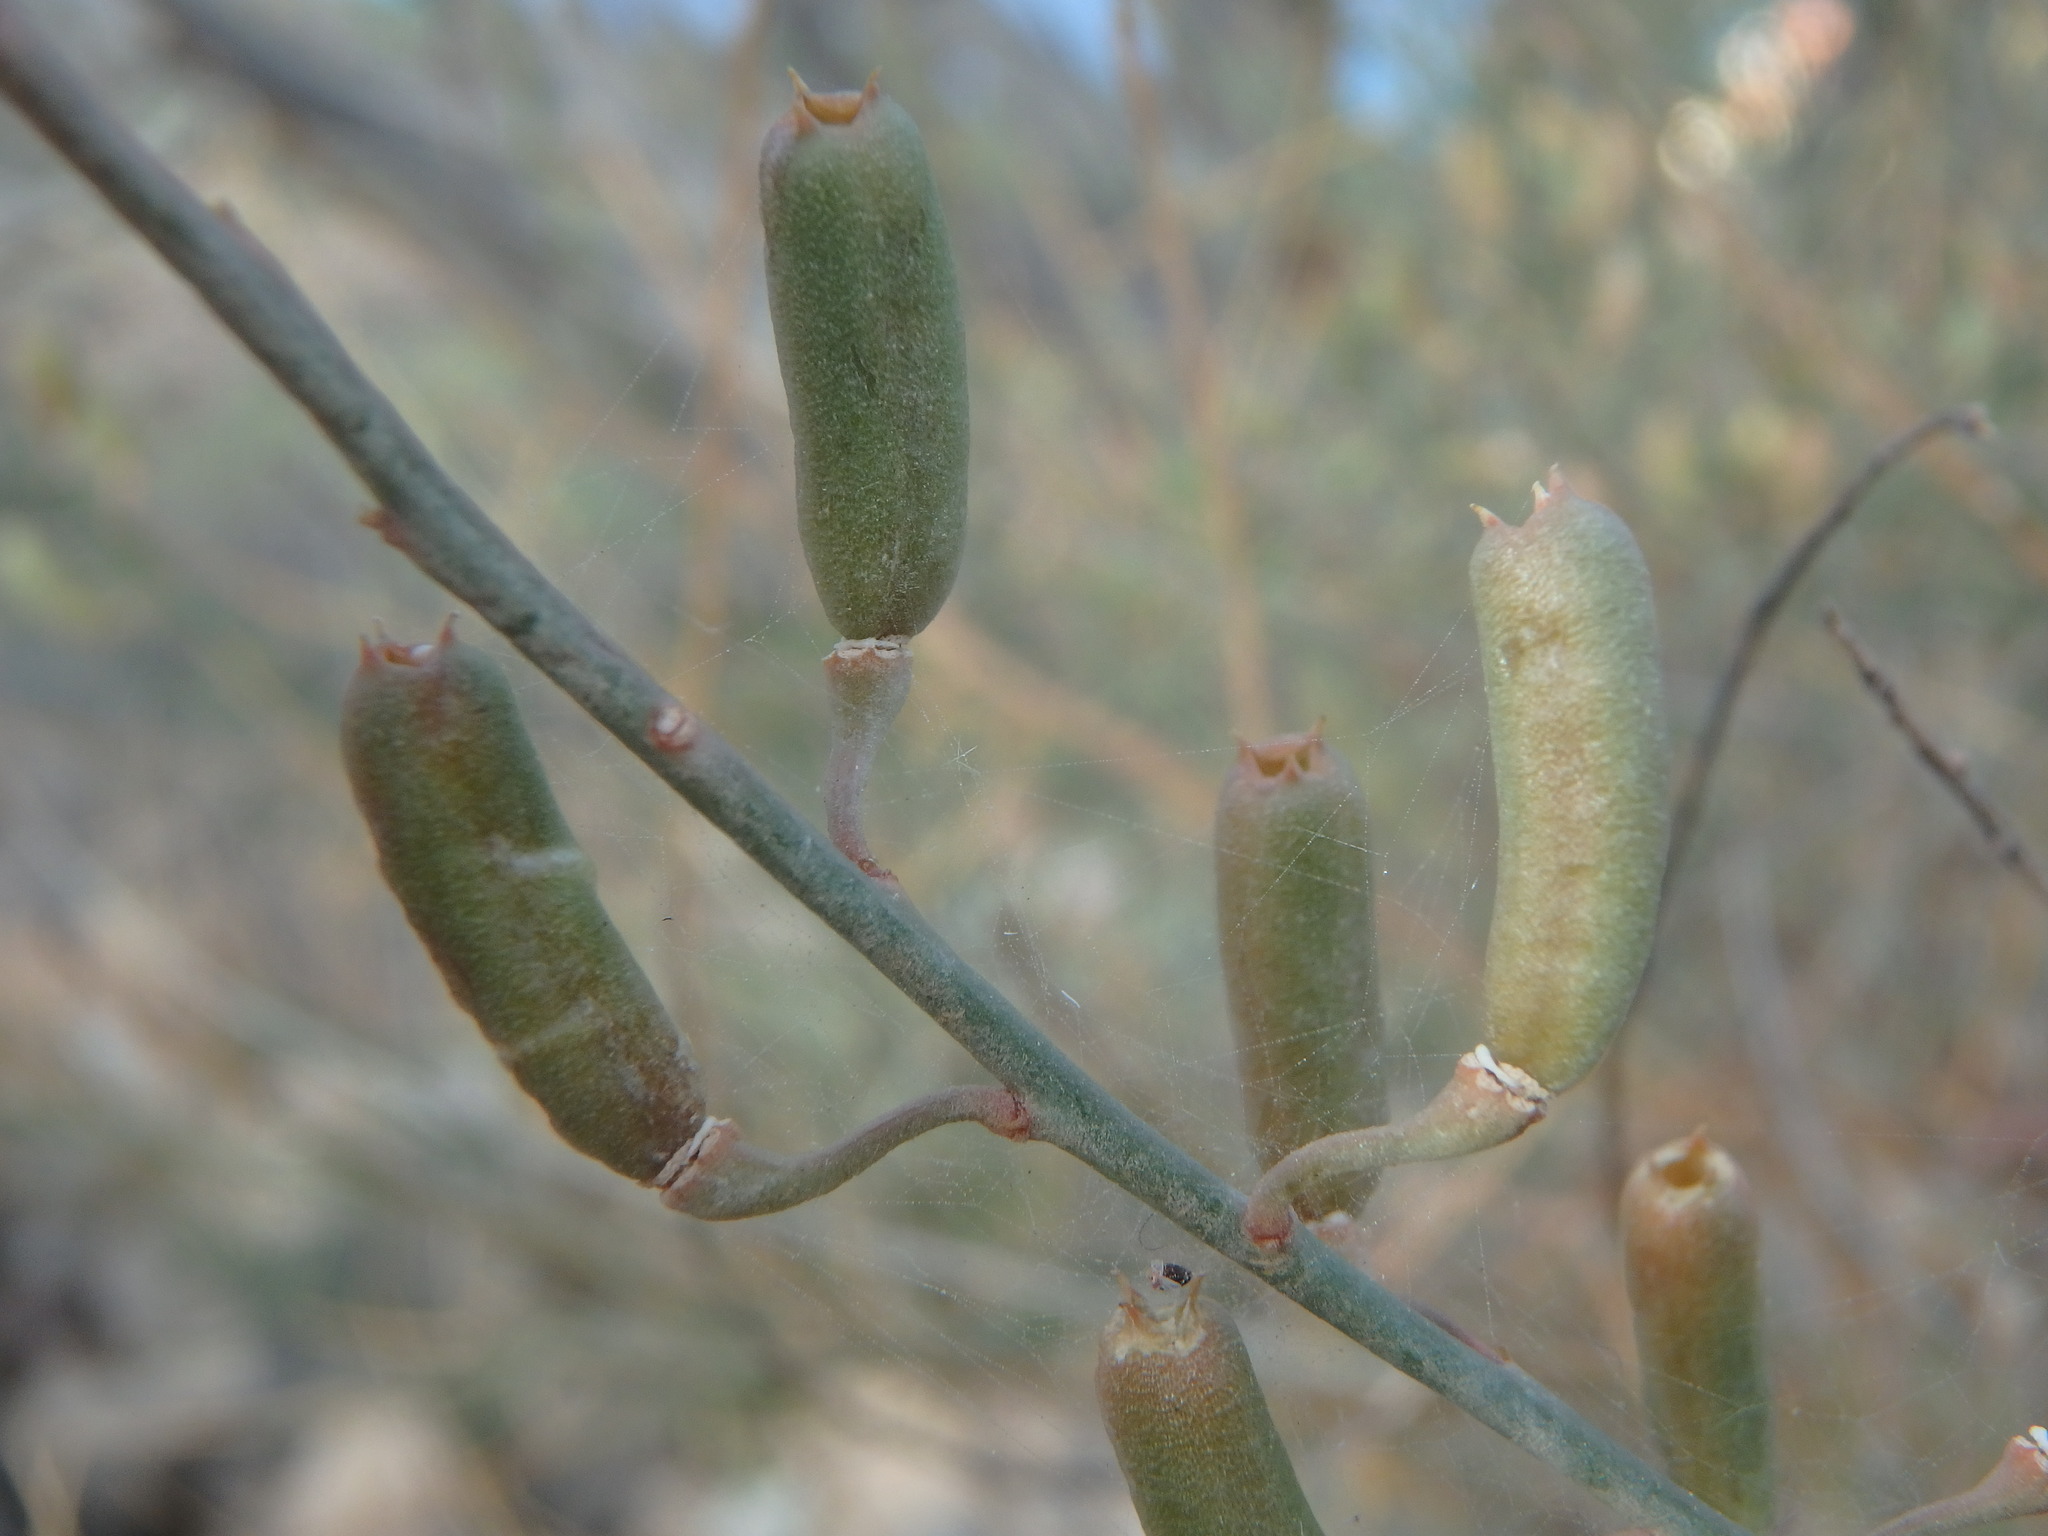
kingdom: Plantae
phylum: Tracheophyta
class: Magnoliopsida
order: Brassicales
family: Resedaceae
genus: Reseda
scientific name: Reseda scoparia
